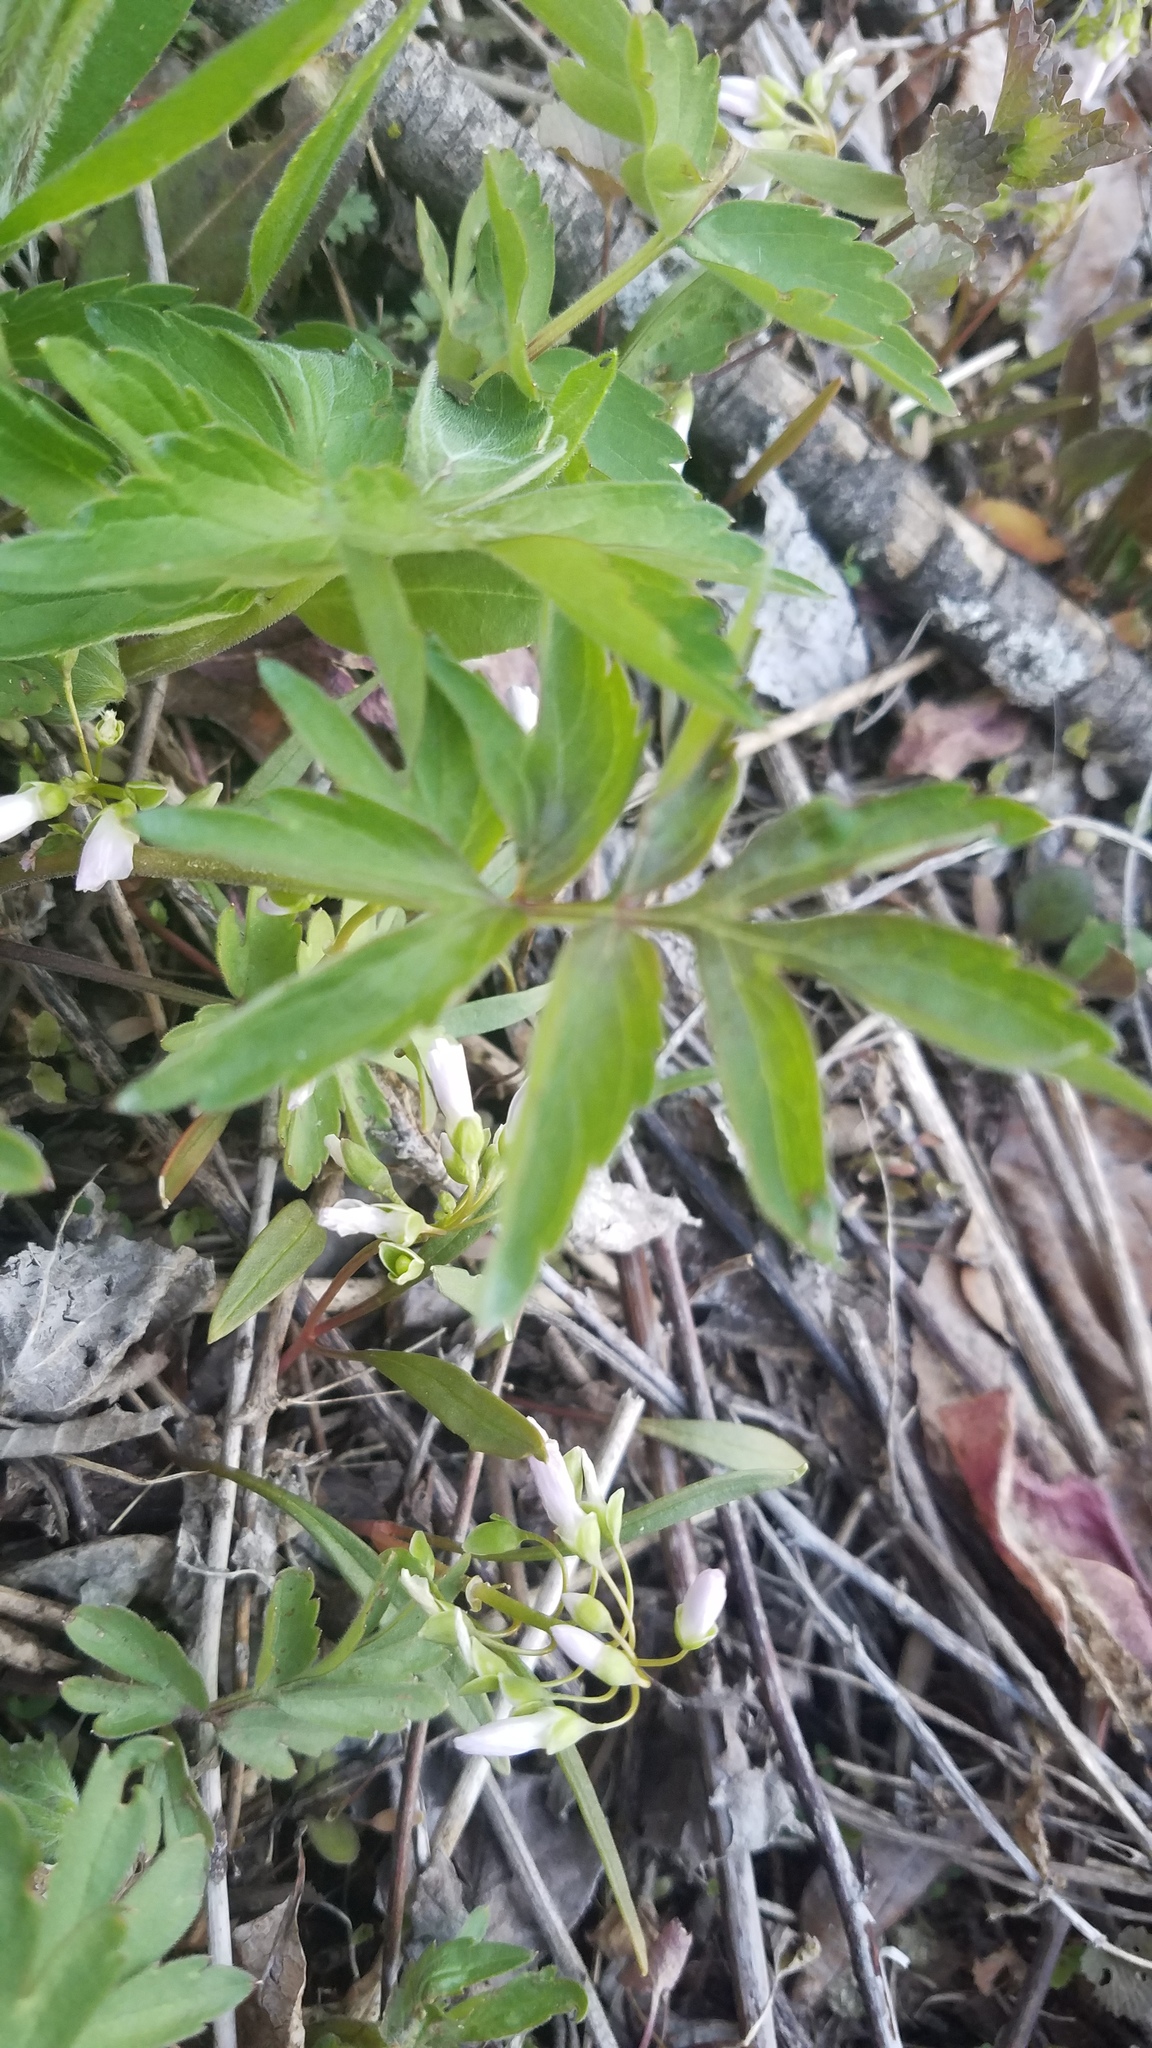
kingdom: Plantae
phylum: Tracheophyta
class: Magnoliopsida
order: Caryophyllales
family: Montiaceae
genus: Claytonia
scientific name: Claytonia virginica
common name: Virginia springbeauty
